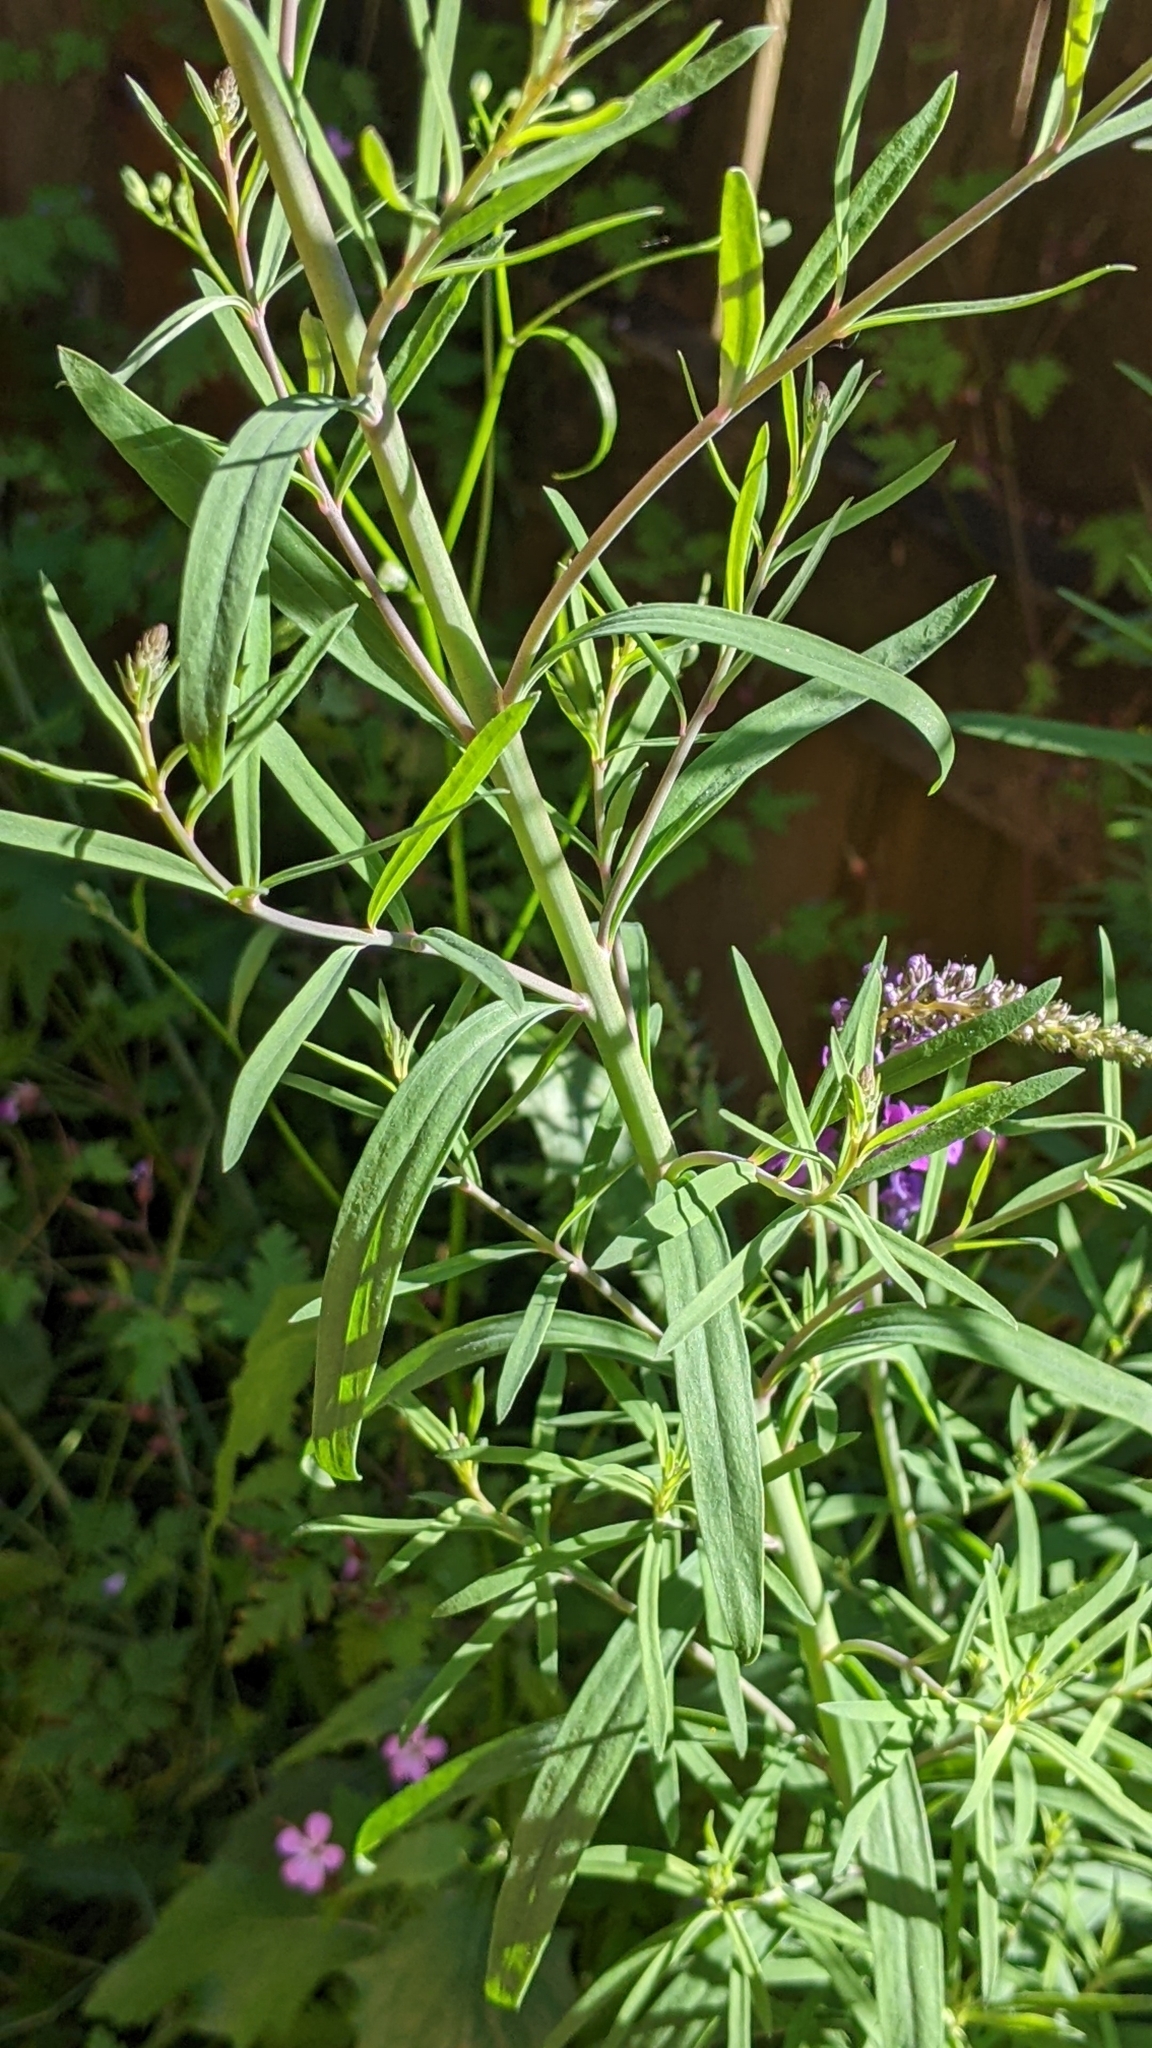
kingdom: Plantae
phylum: Tracheophyta
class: Magnoliopsida
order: Lamiales
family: Plantaginaceae
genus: Linaria
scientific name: Linaria purpurea
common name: Purple toadflax
